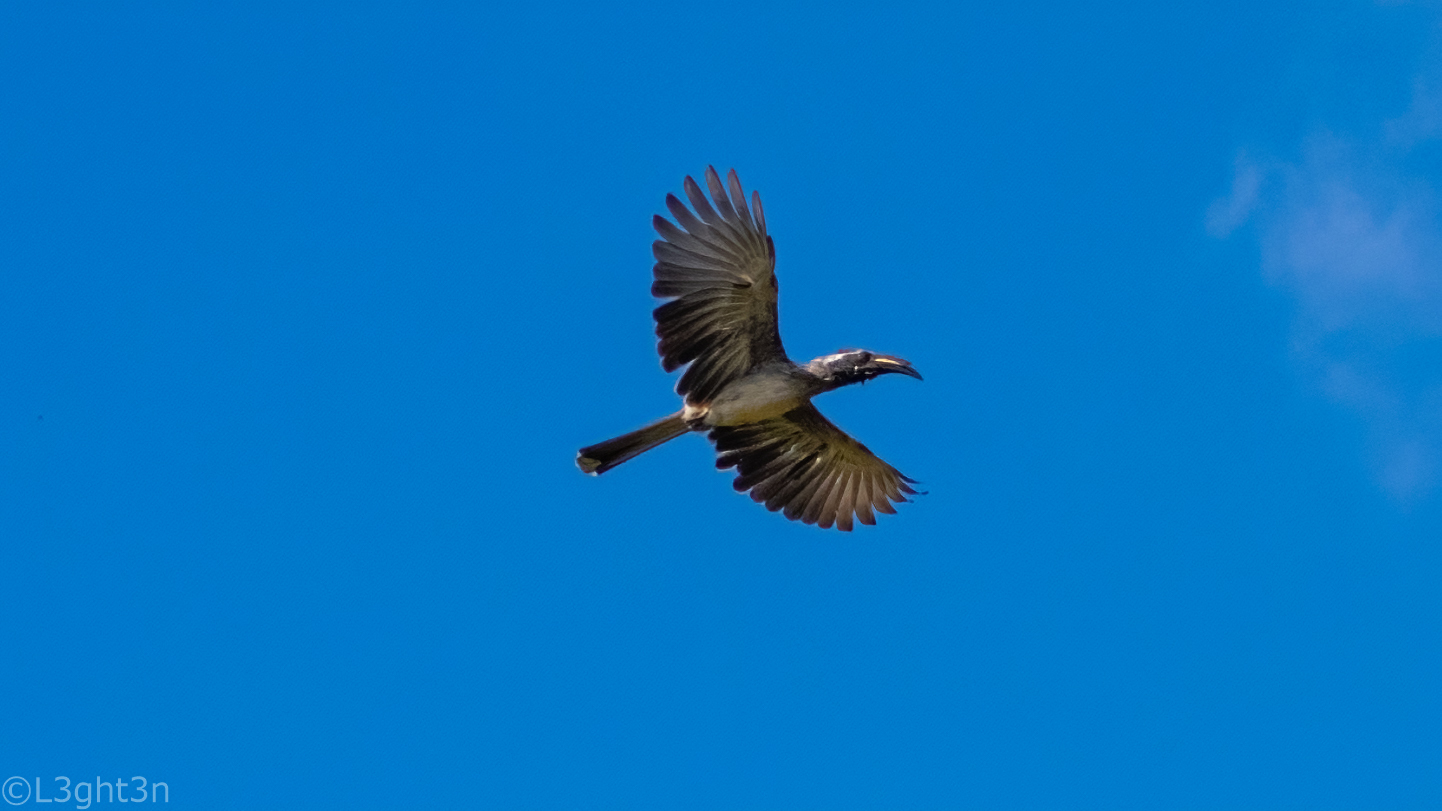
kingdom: Animalia
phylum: Chordata
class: Aves
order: Bucerotiformes
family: Bucerotidae
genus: Lophoceros
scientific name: Lophoceros nasutus
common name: African grey hornbill
